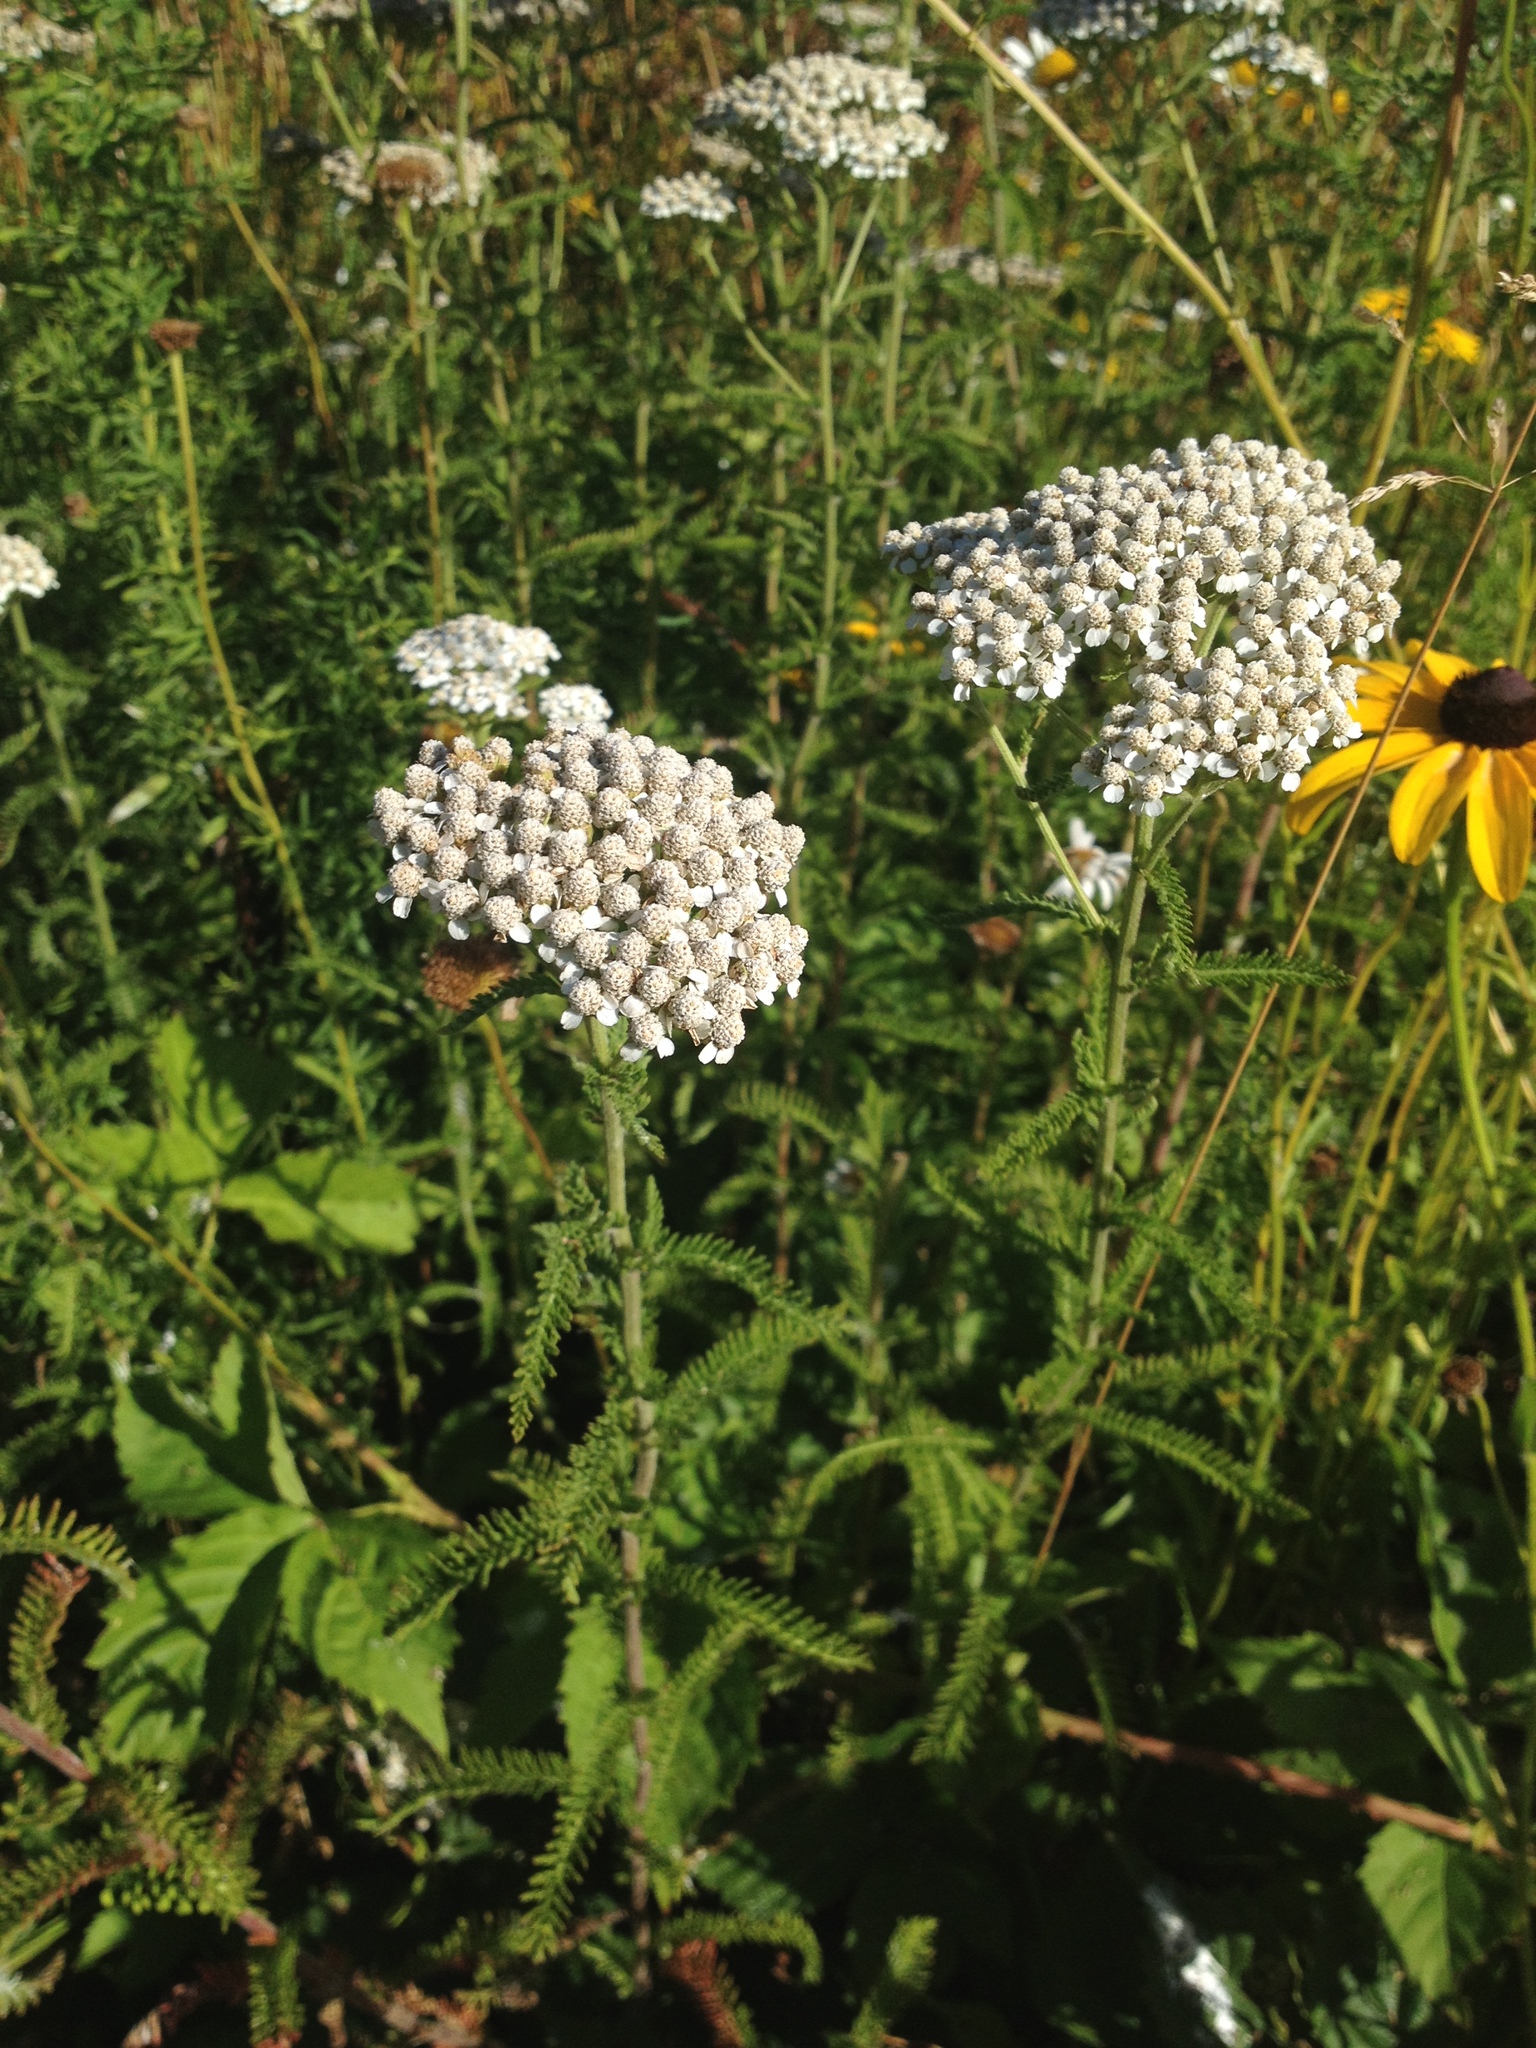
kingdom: Plantae
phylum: Tracheophyta
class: Magnoliopsida
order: Asterales
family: Asteraceae
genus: Achillea
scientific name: Achillea millefolium
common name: Yarrow
